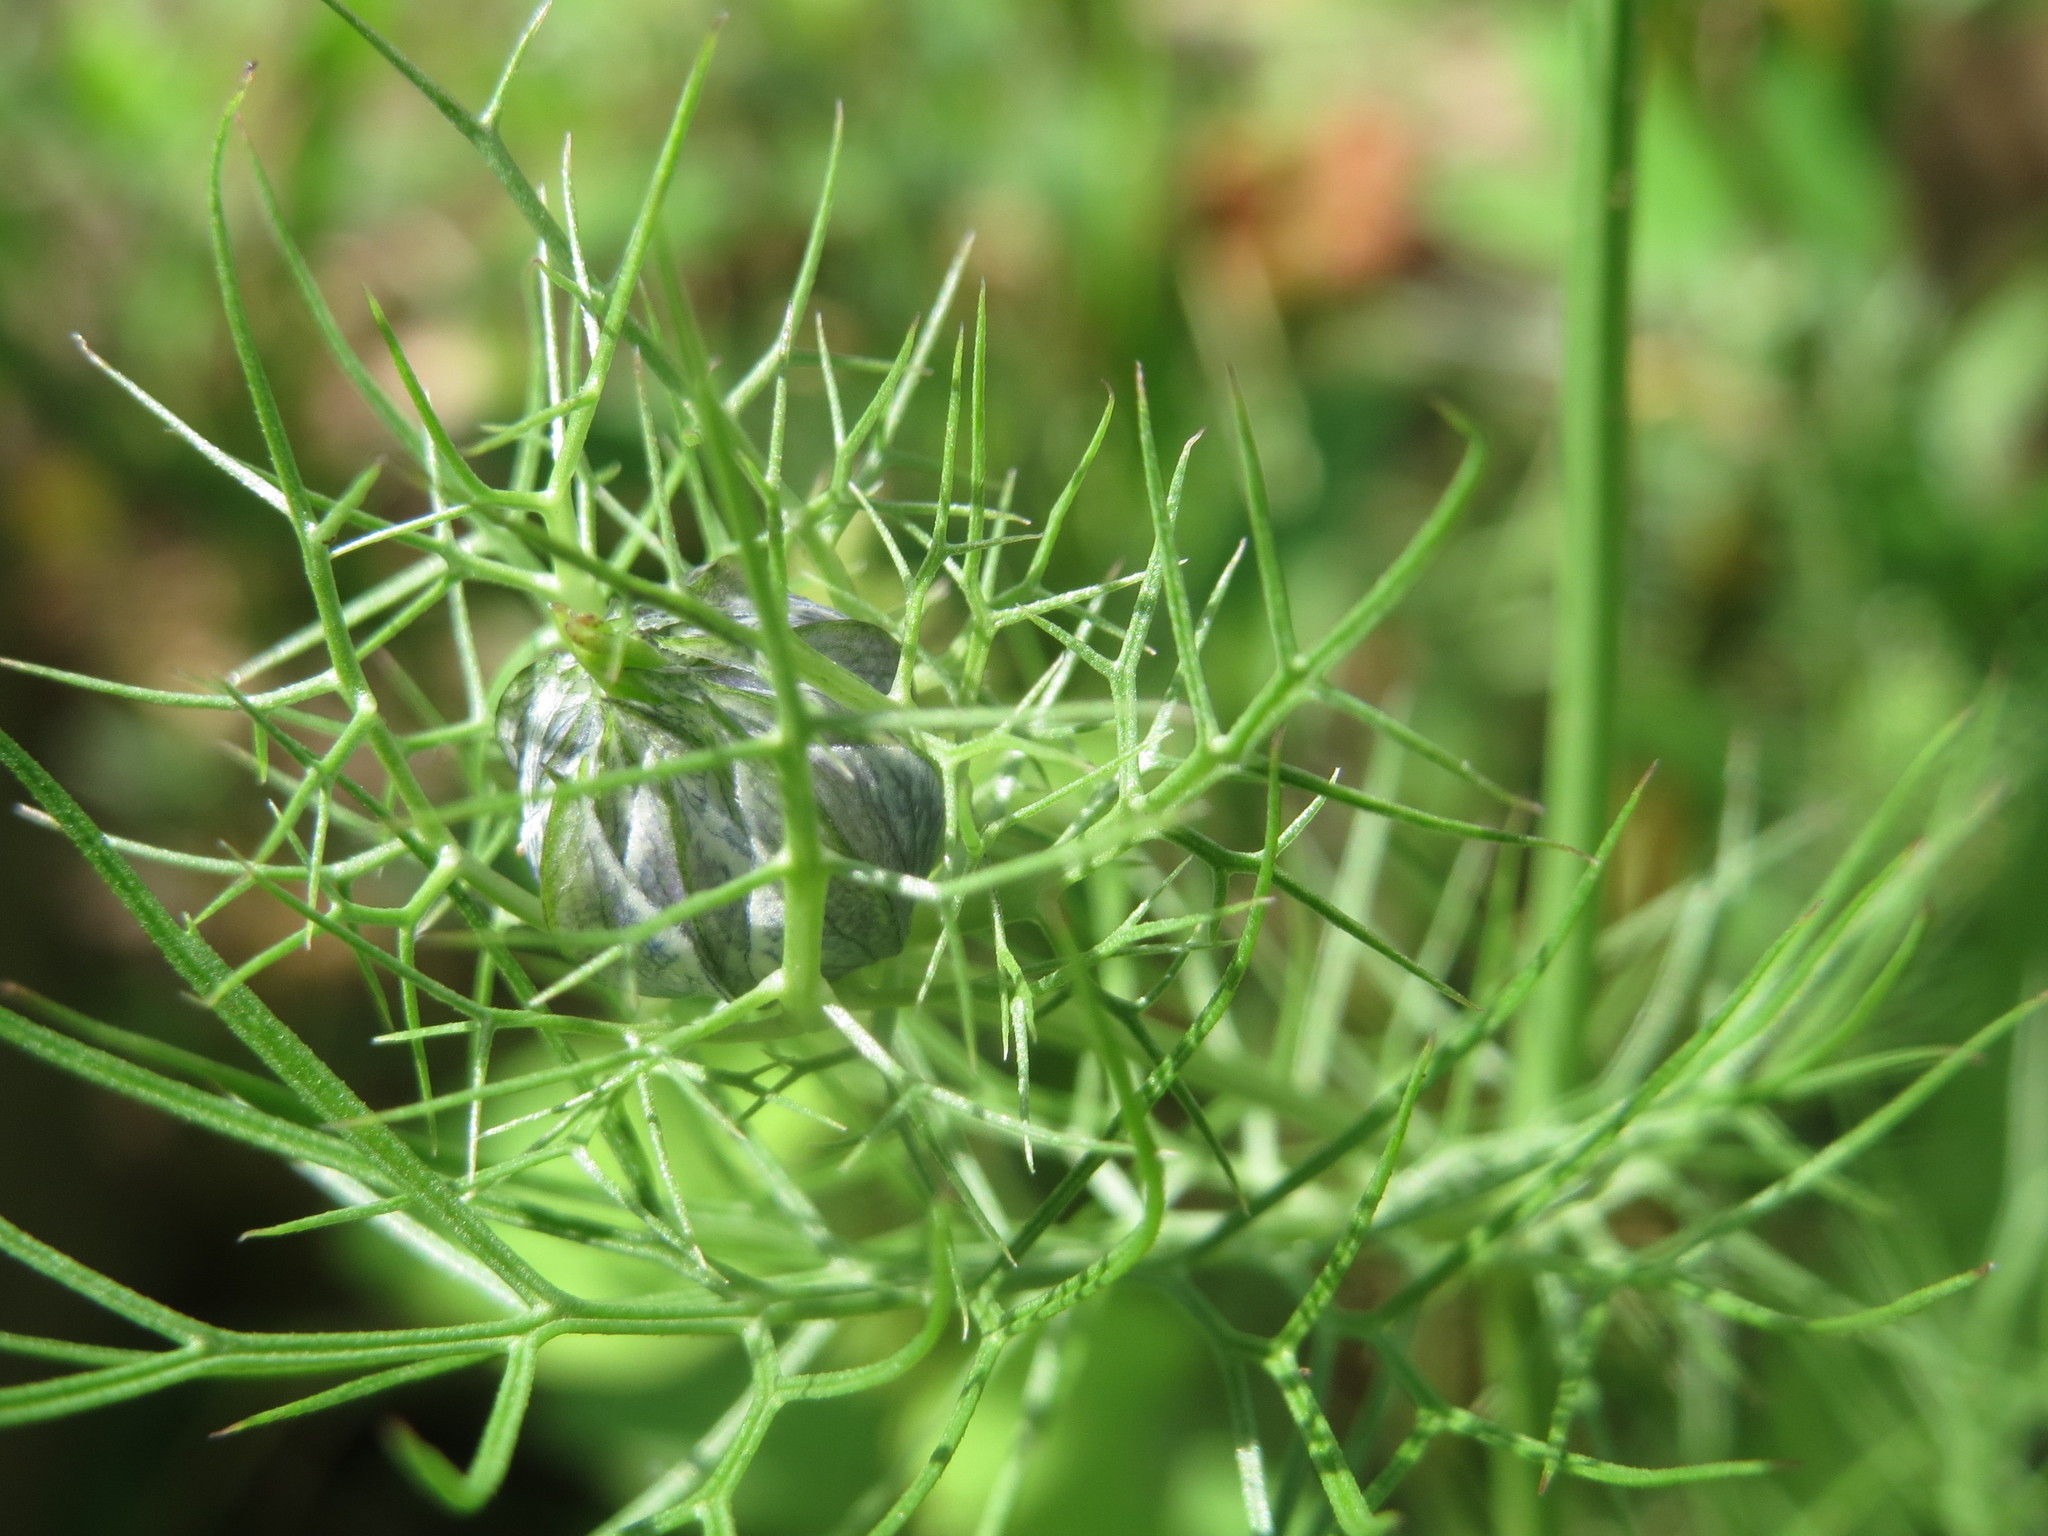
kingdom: Plantae
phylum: Tracheophyta
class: Magnoliopsida
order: Ranunculales
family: Ranunculaceae
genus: Nigella
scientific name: Nigella damascena
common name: Love-in-a-mist
